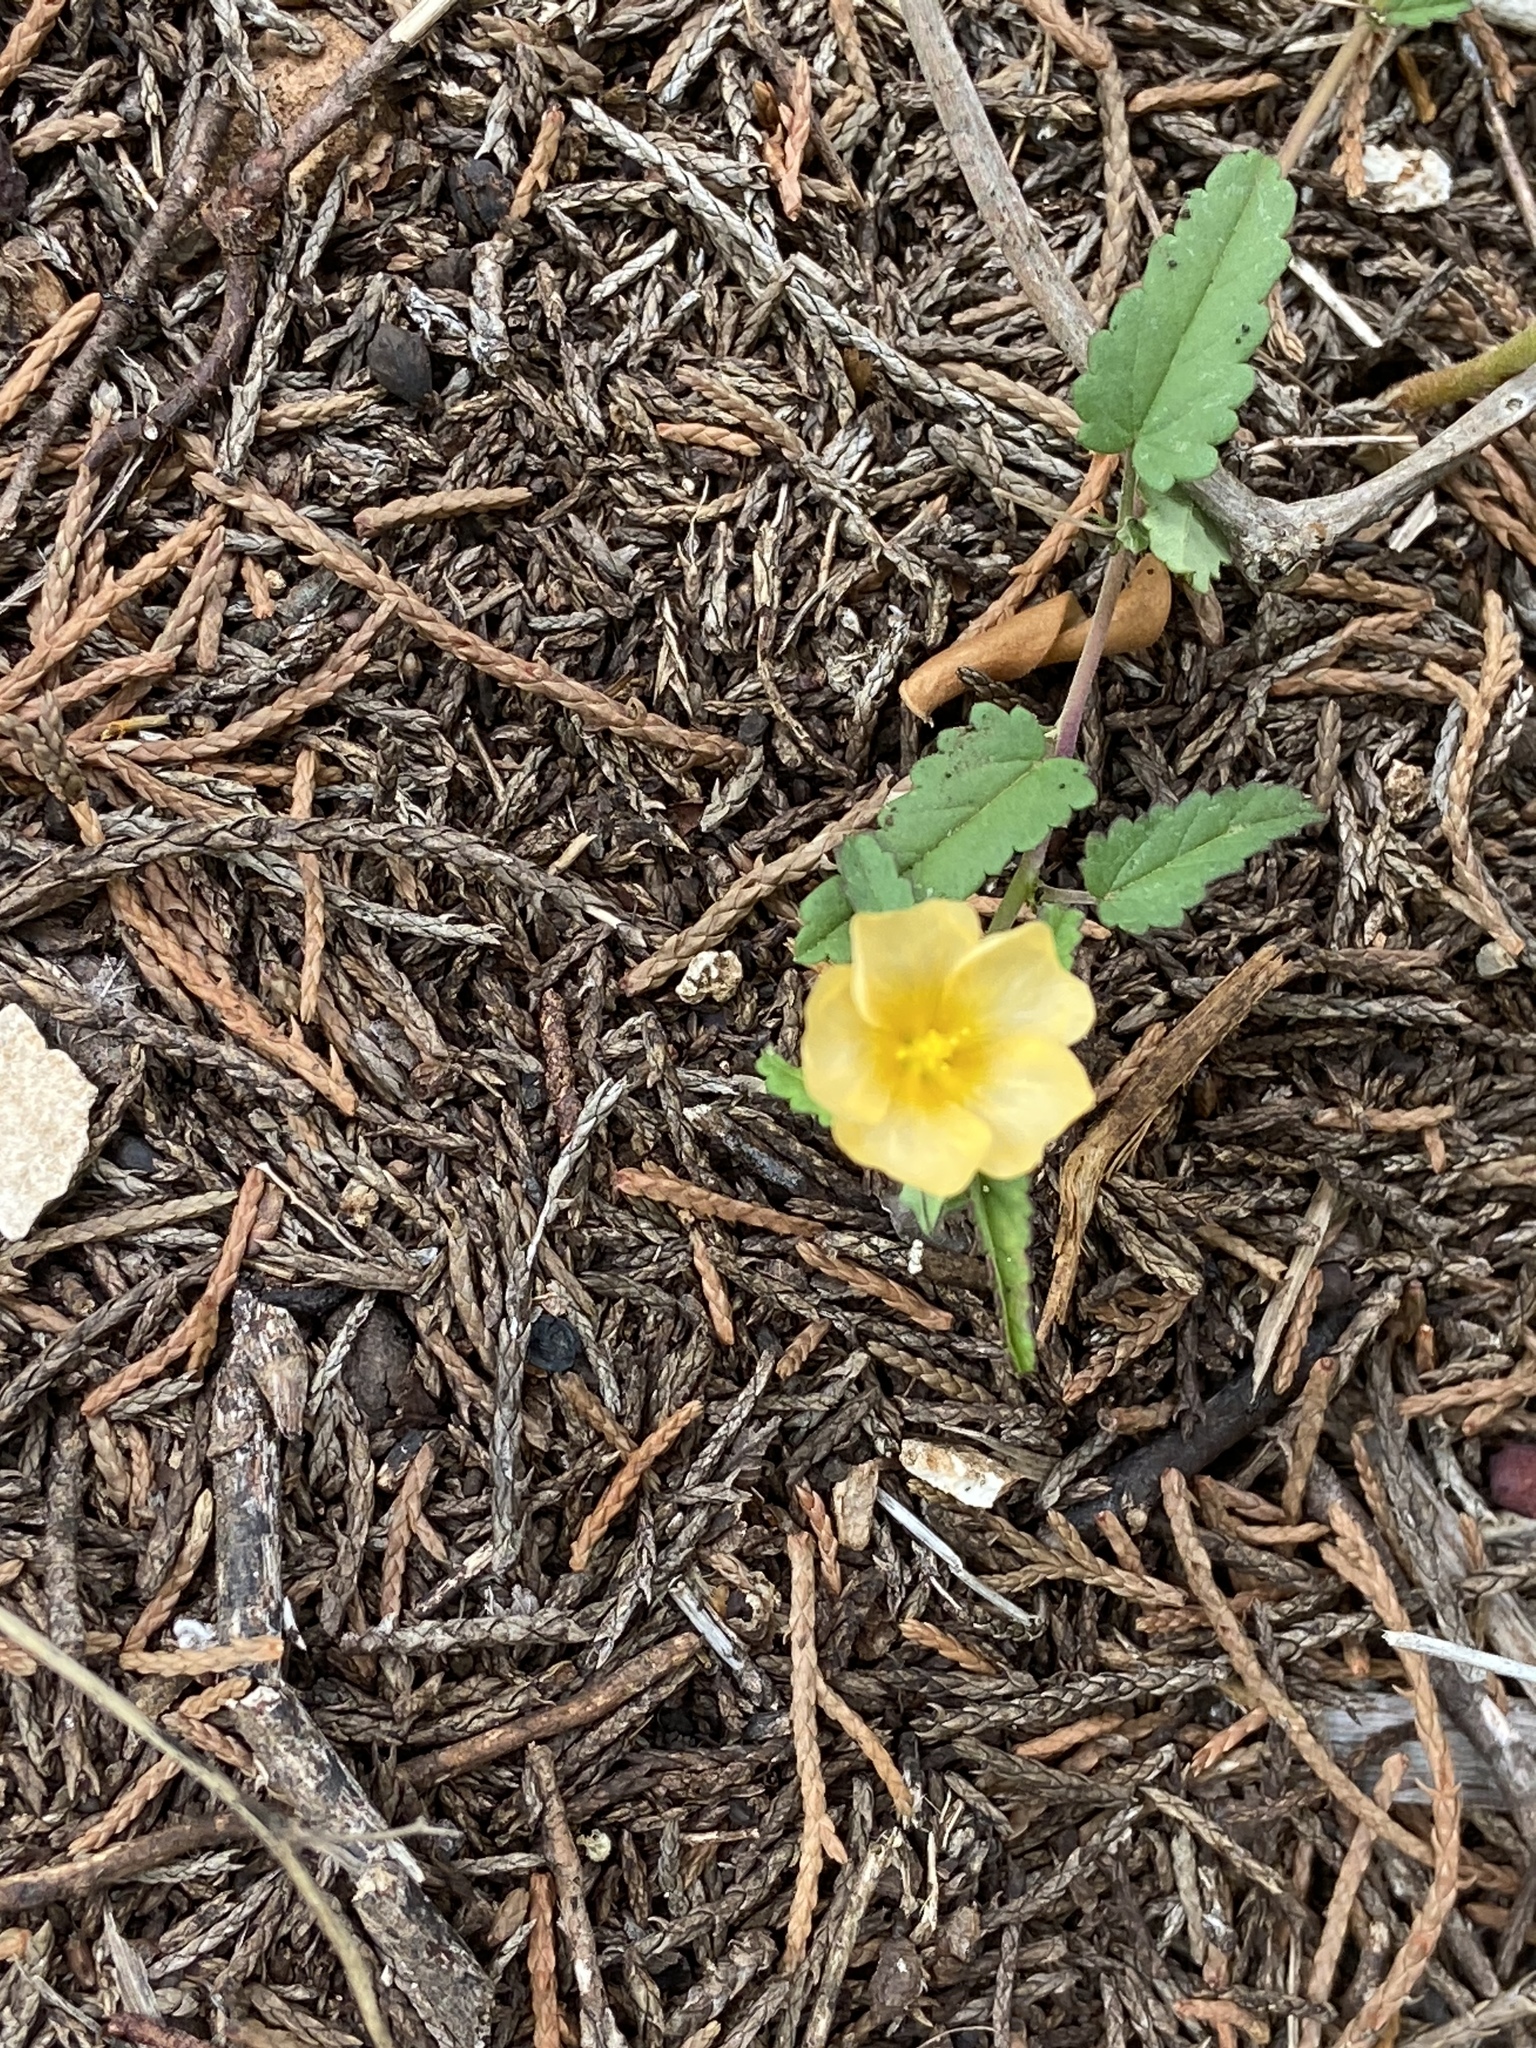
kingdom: Plantae
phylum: Tracheophyta
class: Magnoliopsida
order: Malvales
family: Malvaceae
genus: Sida
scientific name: Sida abutilifolia
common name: Spreading fanpetals
